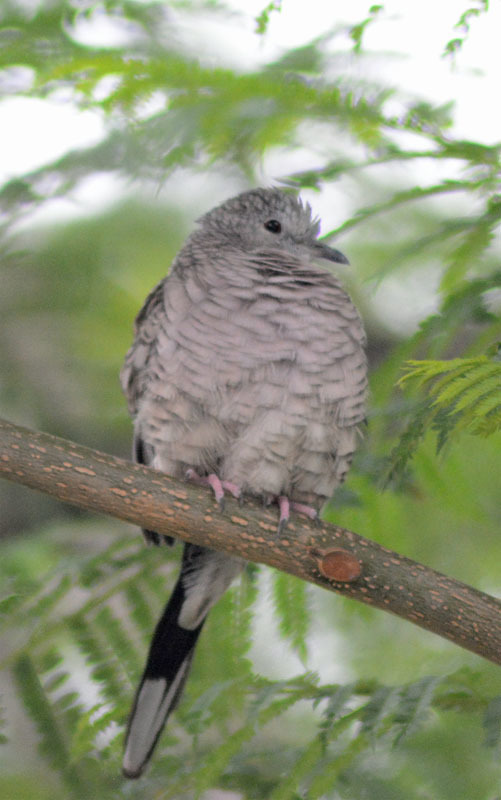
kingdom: Animalia
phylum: Chordata
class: Aves
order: Columbiformes
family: Columbidae
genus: Columbina
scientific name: Columbina inca
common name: Inca dove
